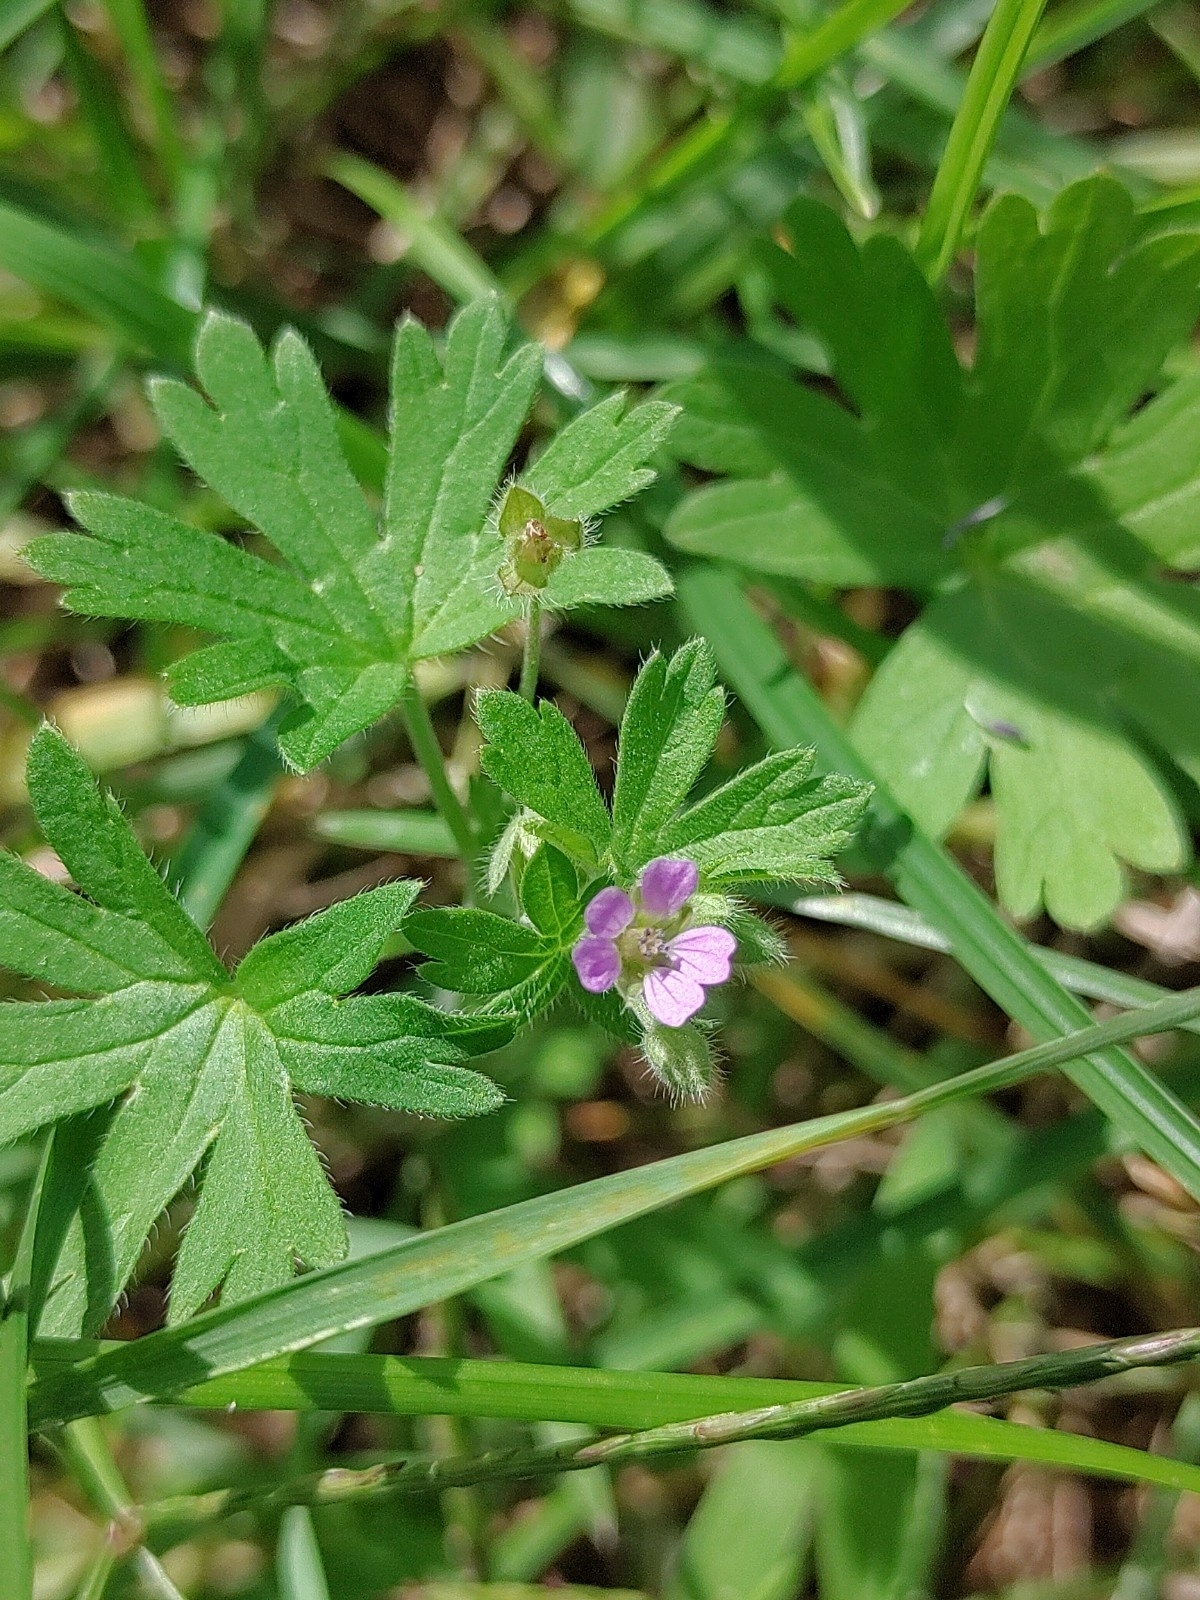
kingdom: Plantae
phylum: Tracheophyta
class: Magnoliopsida
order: Geraniales
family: Geraniaceae
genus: Geranium
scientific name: Geranium pusillum
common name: Small geranium
